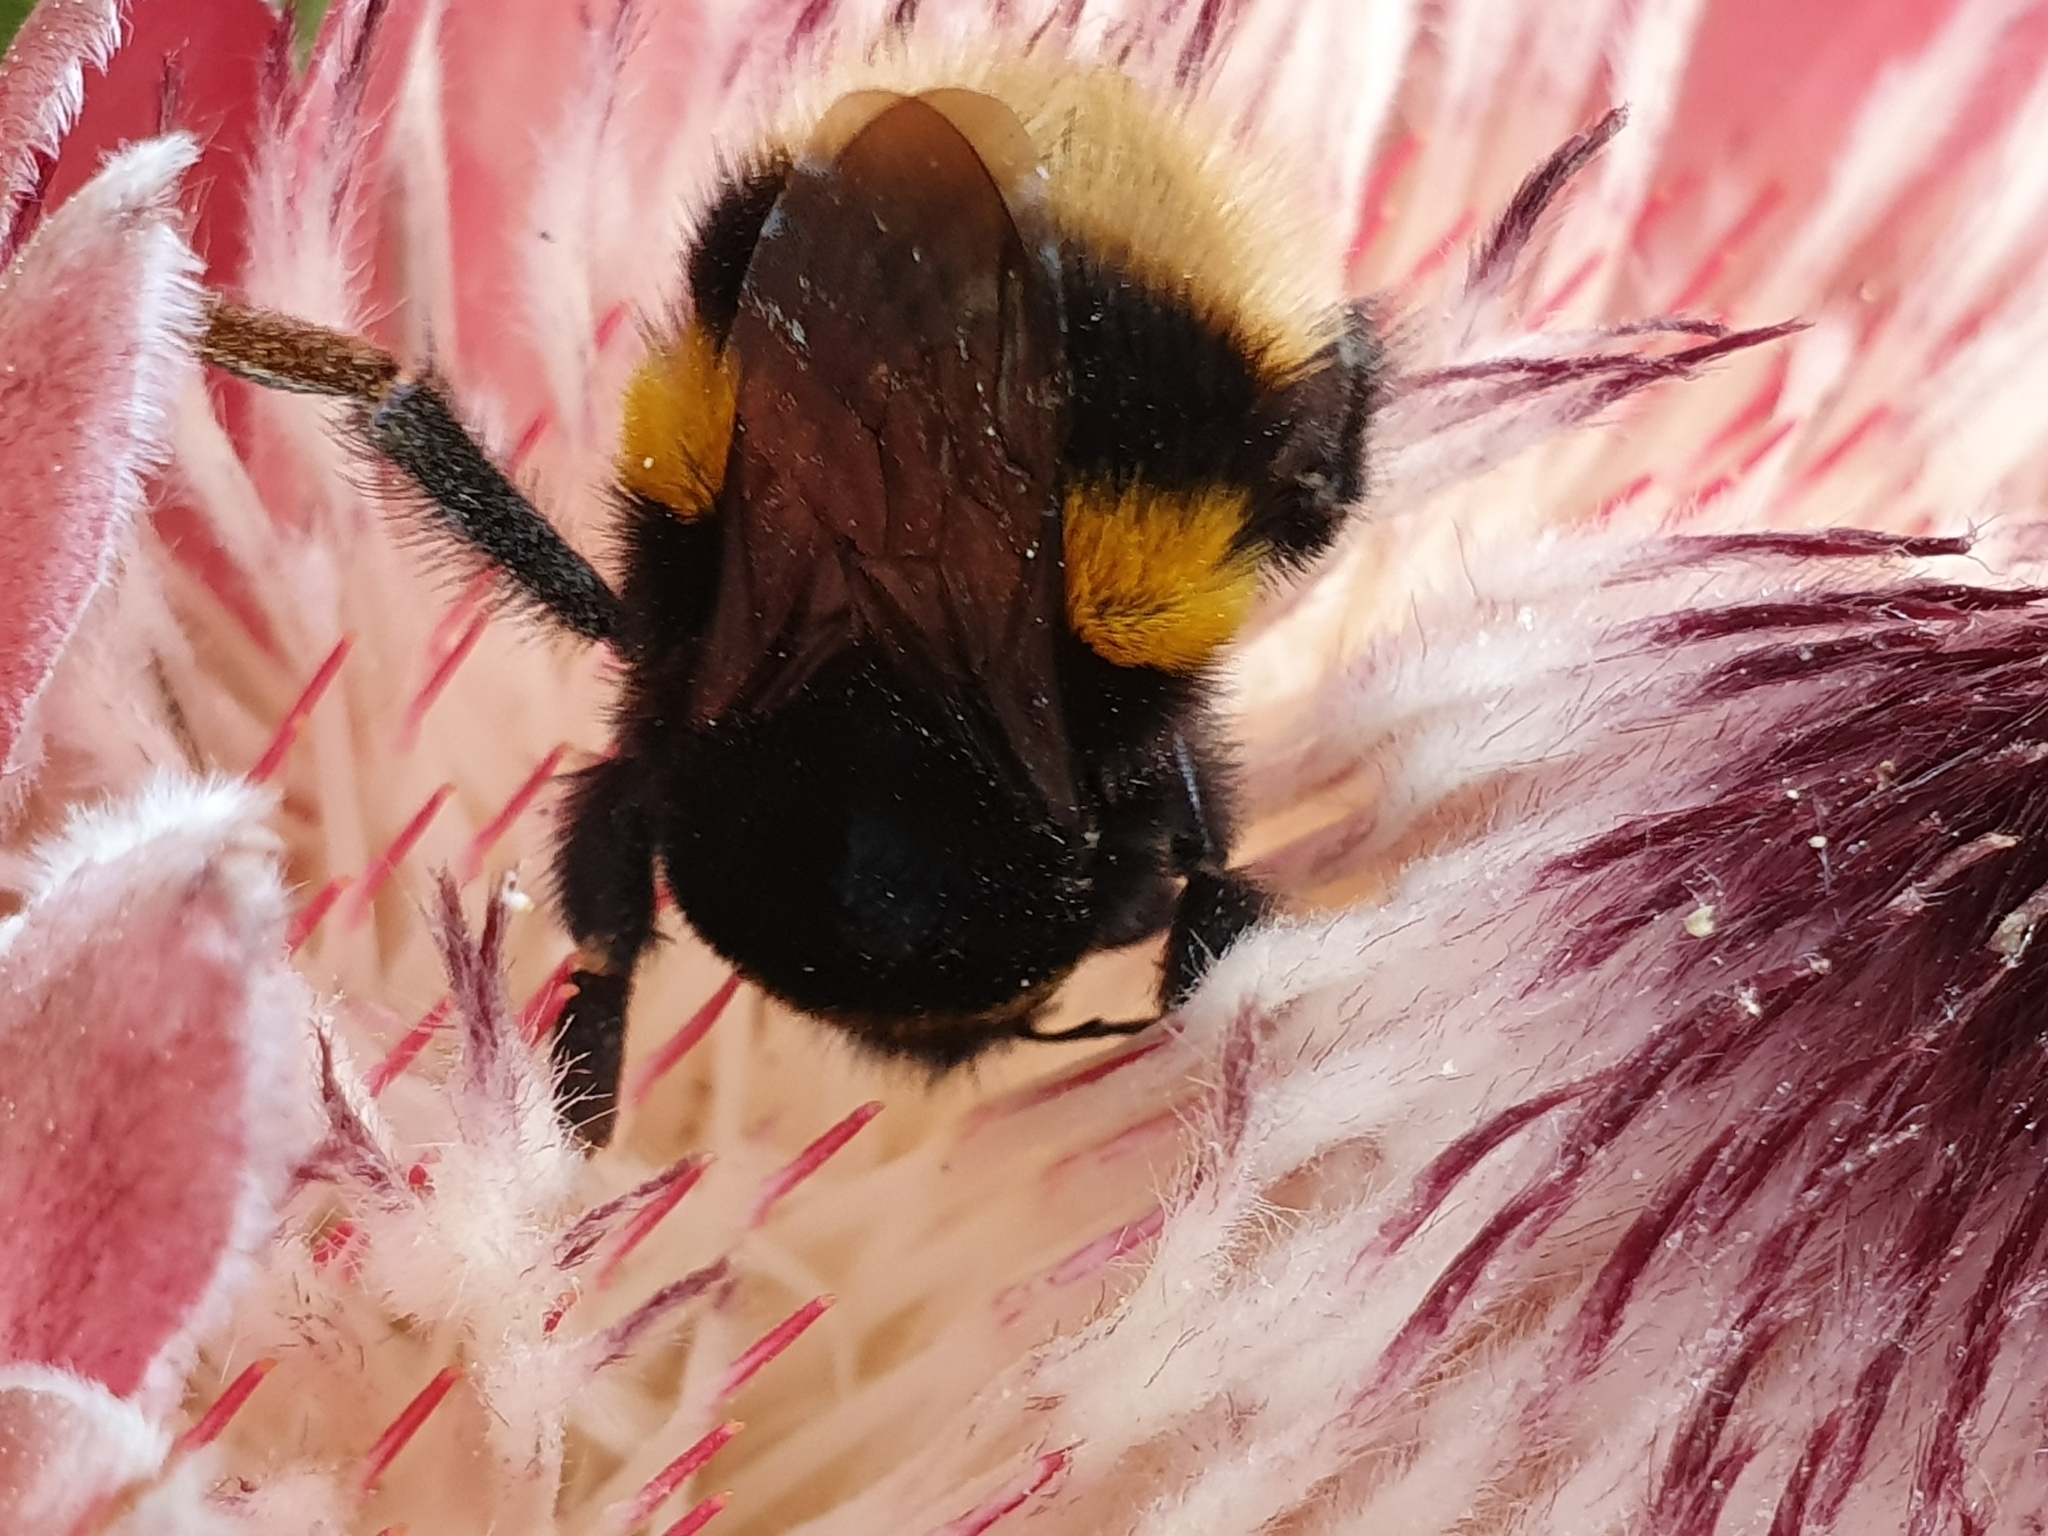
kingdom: Animalia
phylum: Arthropoda
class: Insecta
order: Hymenoptera
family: Apidae
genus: Bombus
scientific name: Bombus terrestris
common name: Buff-tailed bumblebee
